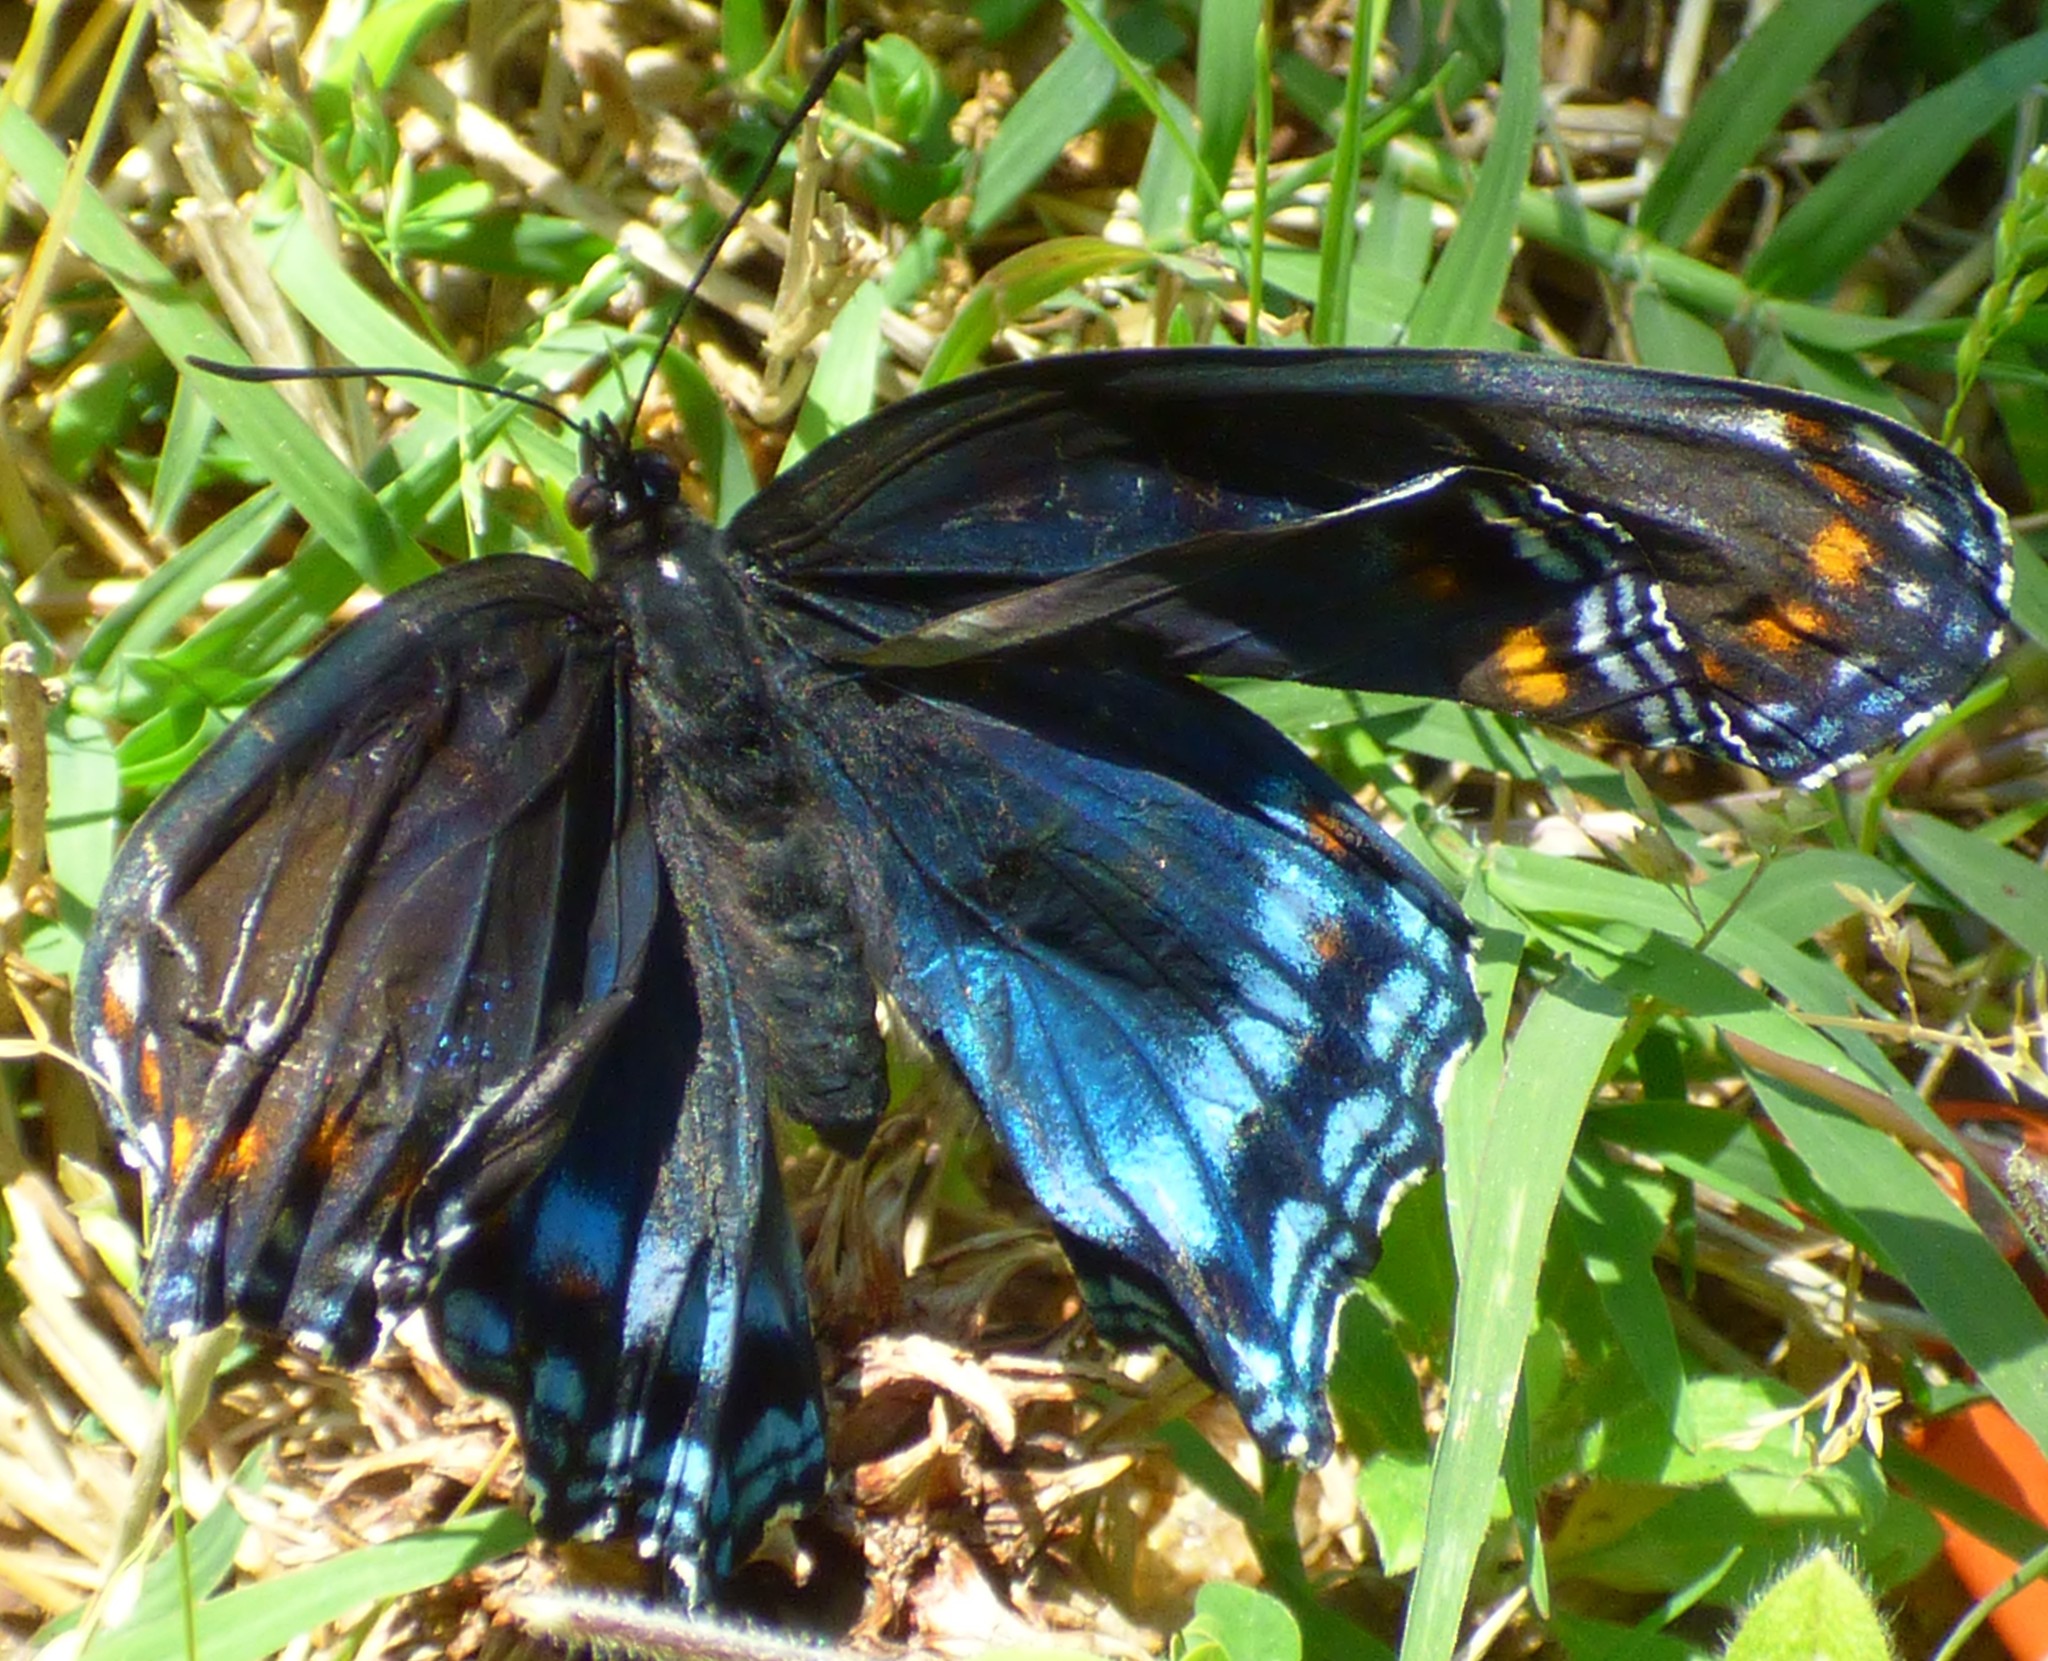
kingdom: Animalia
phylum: Arthropoda
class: Insecta
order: Lepidoptera
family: Nymphalidae
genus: Limenitis
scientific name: Limenitis astyanax
